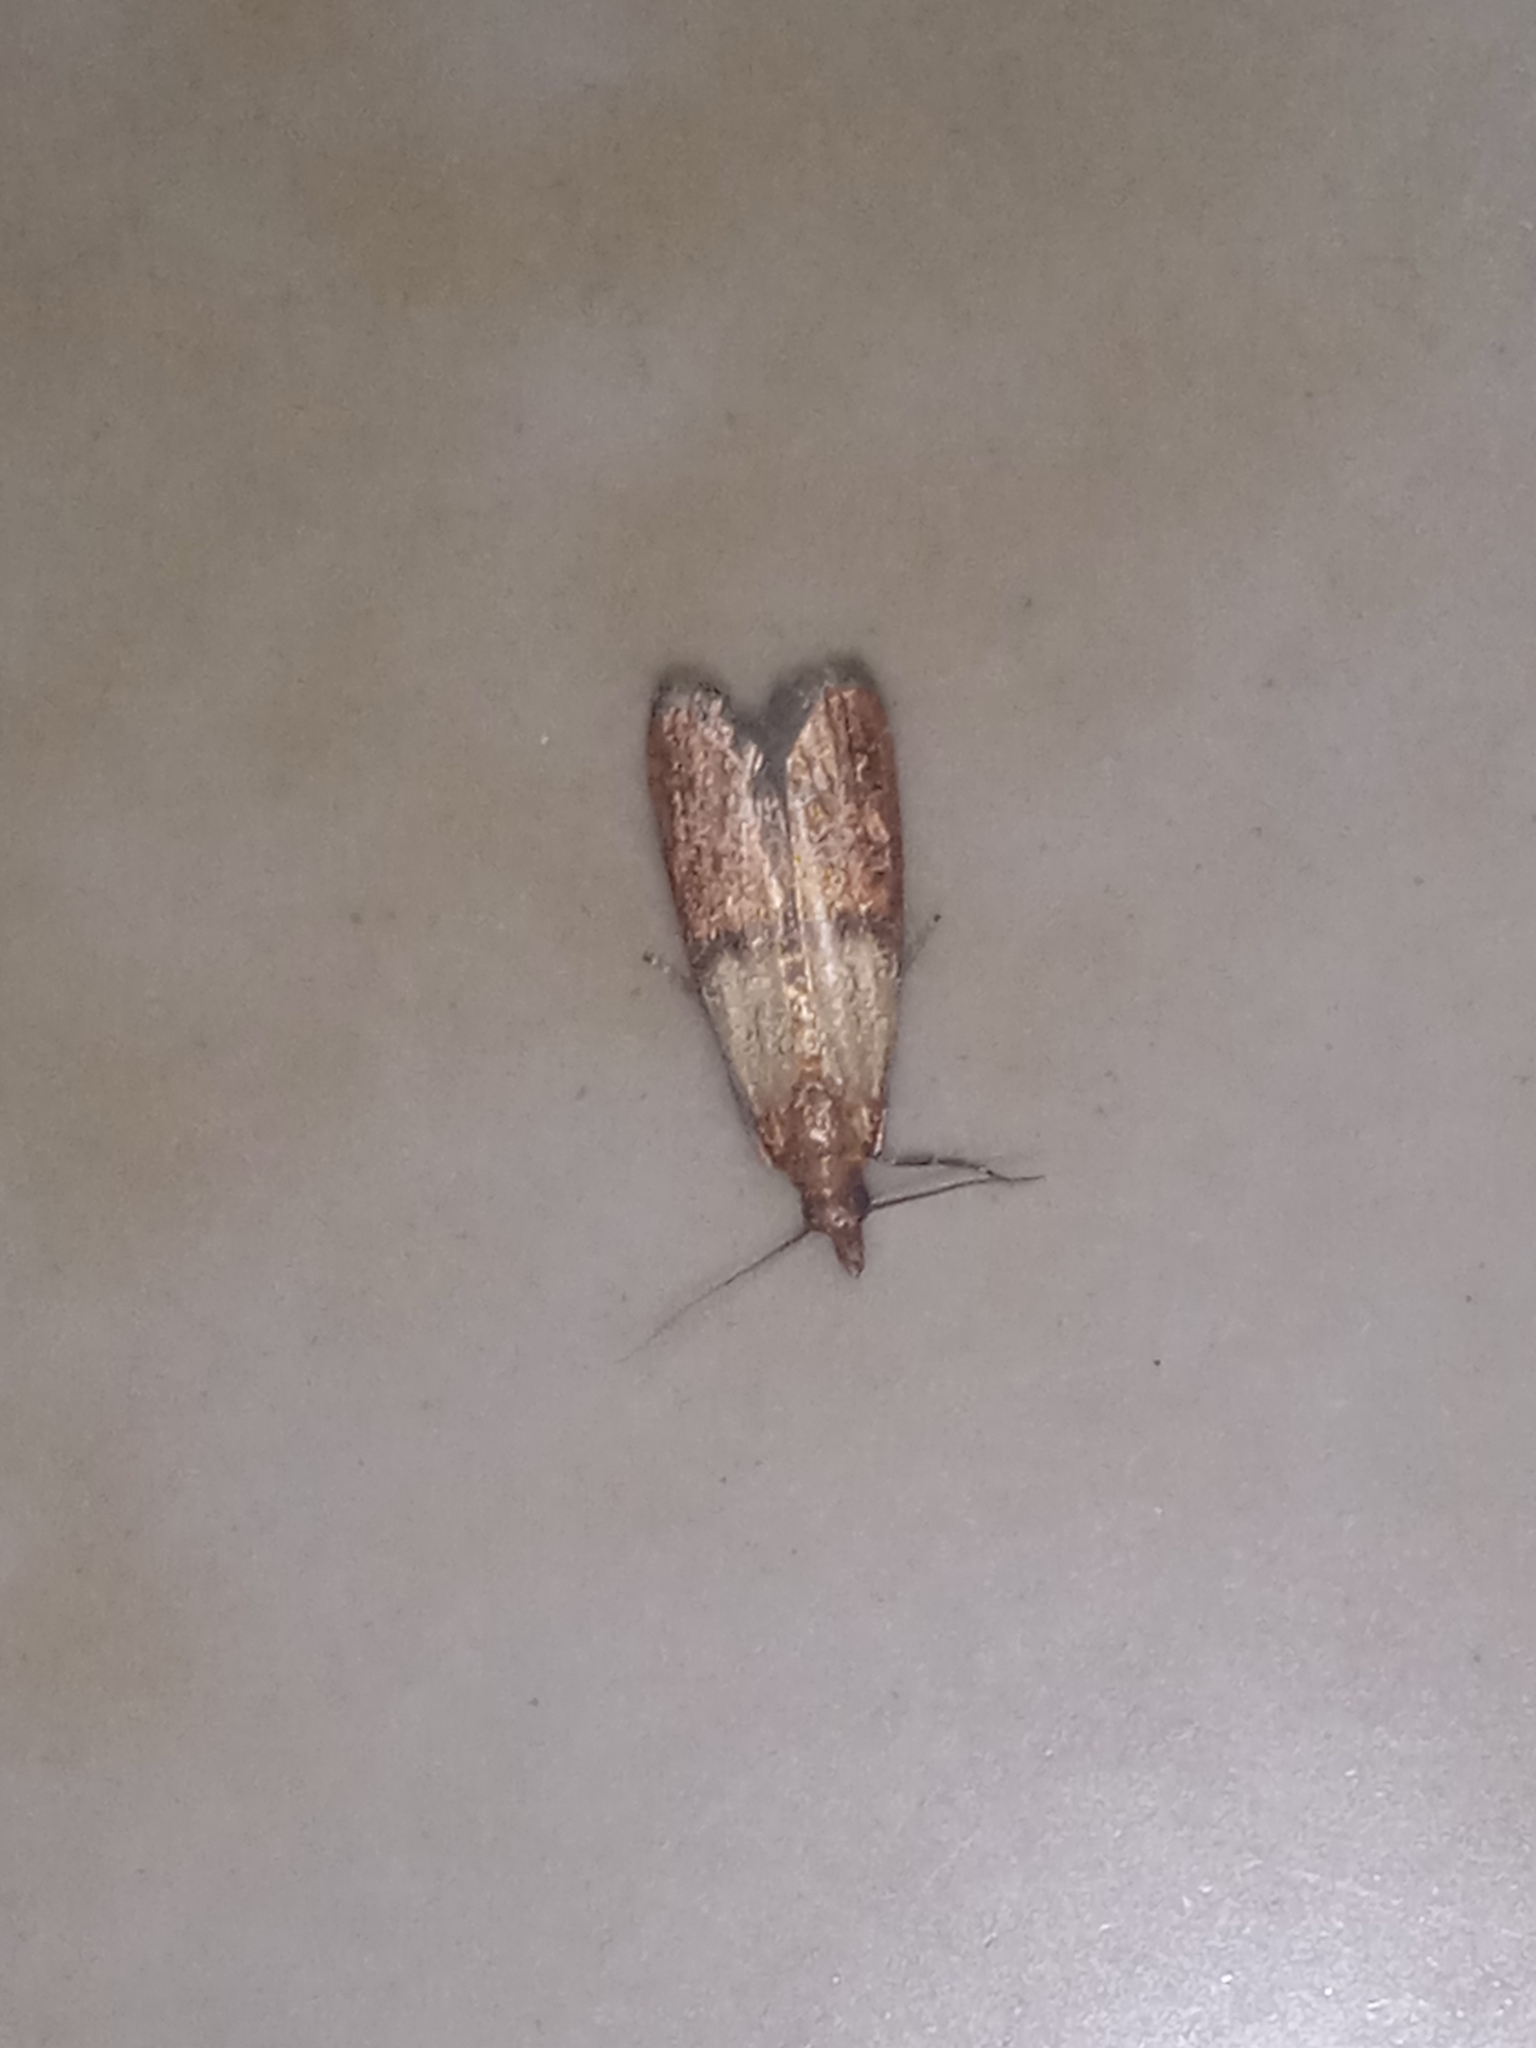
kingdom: Animalia
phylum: Arthropoda
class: Insecta
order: Lepidoptera
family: Pyralidae
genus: Plodia
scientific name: Plodia interpunctella
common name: Indian meal moth
